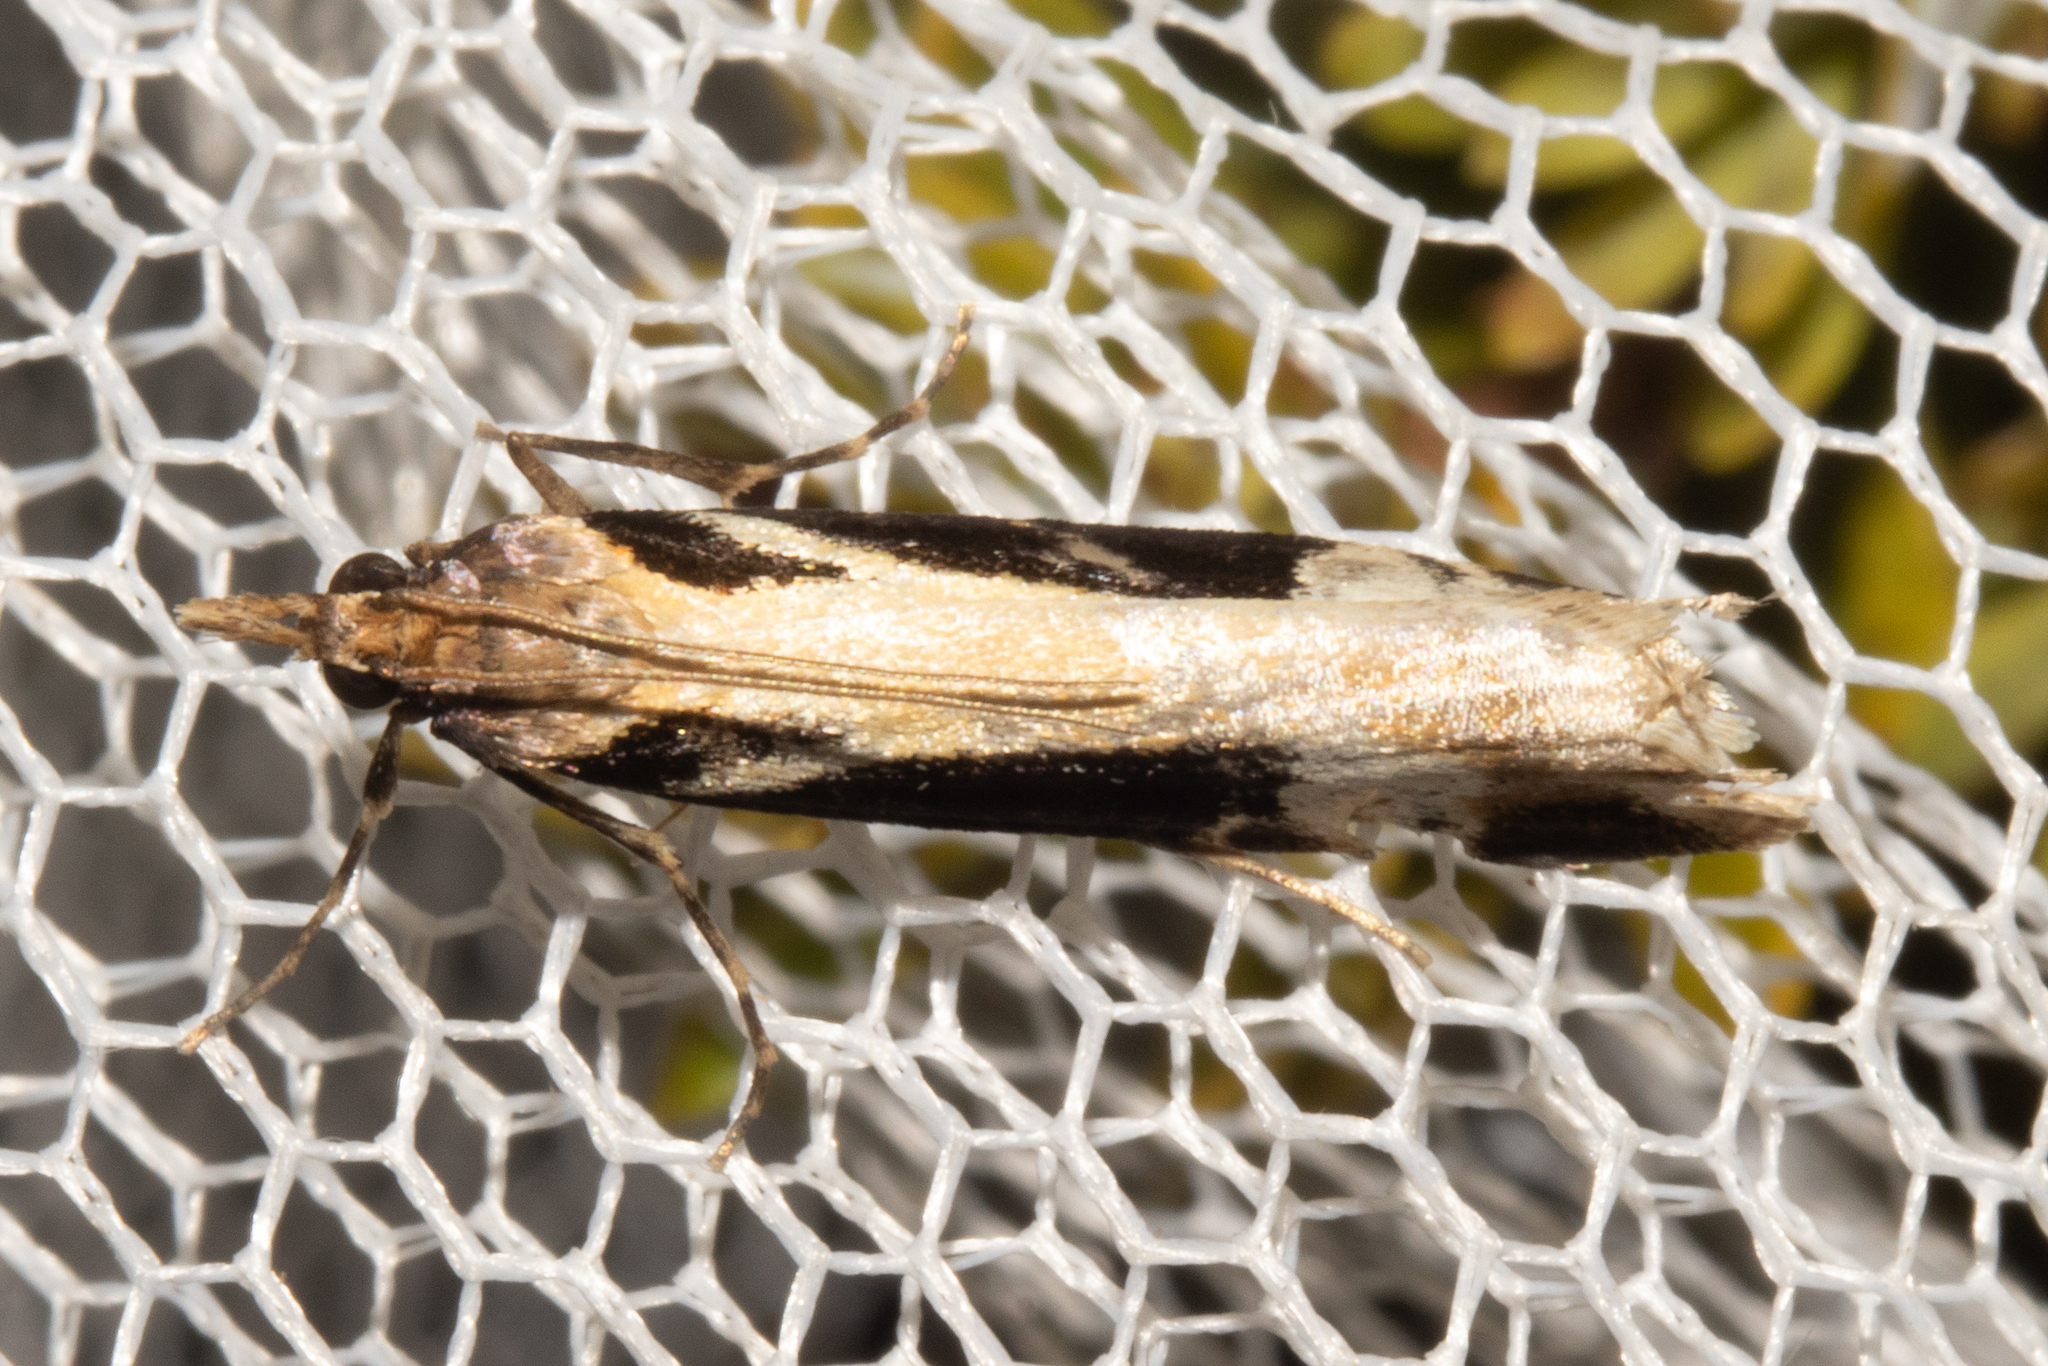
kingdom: Animalia
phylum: Arthropoda
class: Insecta
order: Lepidoptera
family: Crambidae
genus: Scoparia
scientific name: Scoparia trapezophora
